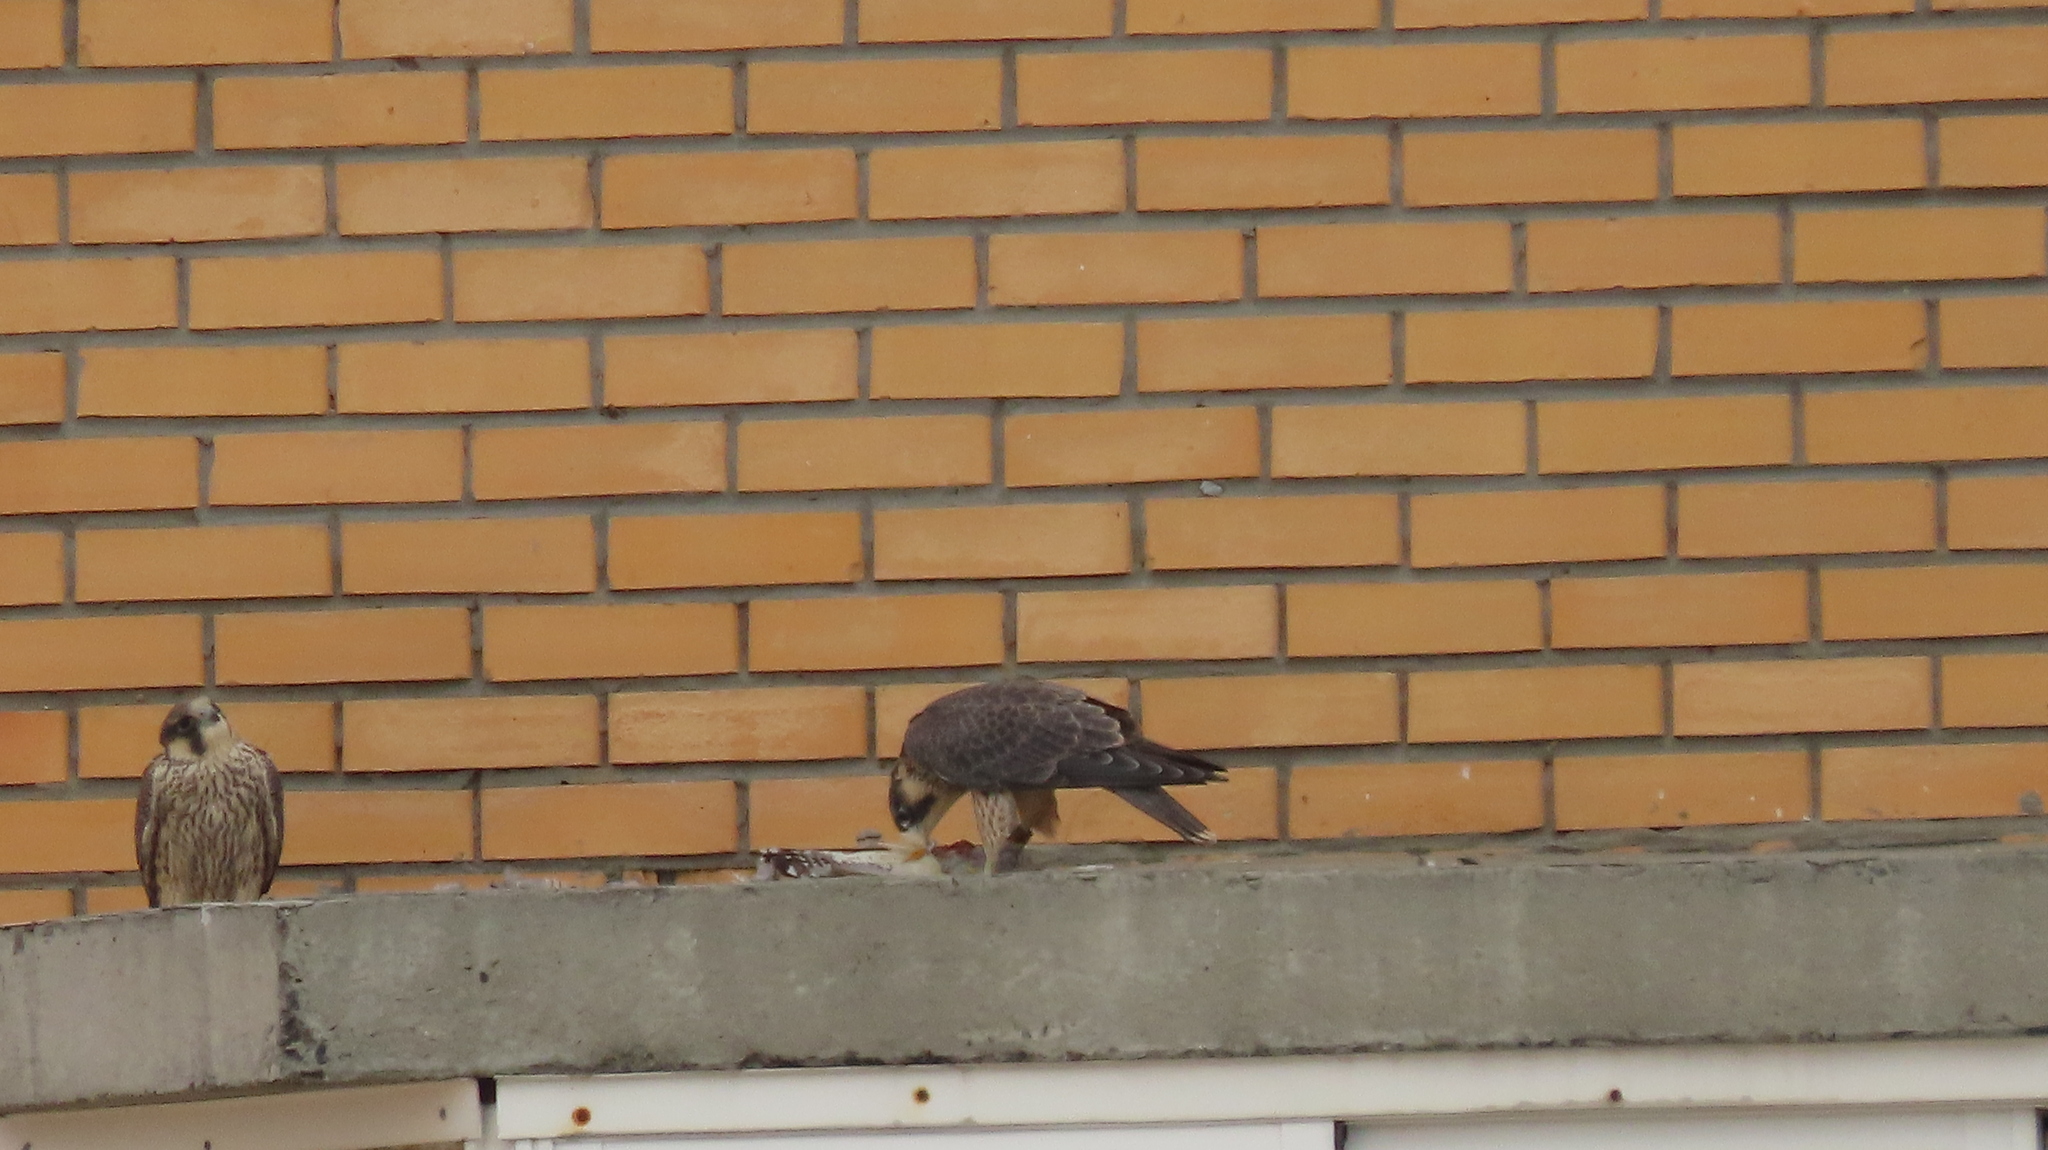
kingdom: Animalia
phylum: Chordata
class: Aves
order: Falconiformes
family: Falconidae
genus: Falco
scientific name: Falco peregrinus
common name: Peregrine falcon
